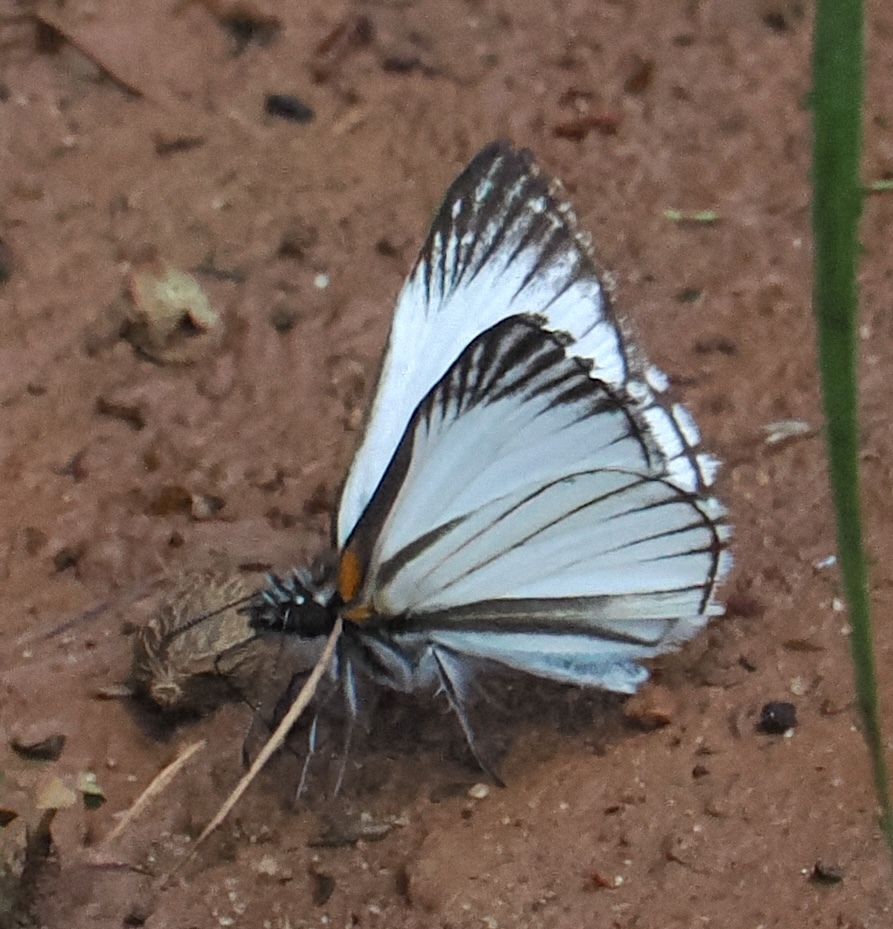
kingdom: Animalia
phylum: Arthropoda
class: Insecta
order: Lepidoptera
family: Hesperiidae
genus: Heliopetes
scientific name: Heliopetes arsalte
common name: Veined white-skipper
